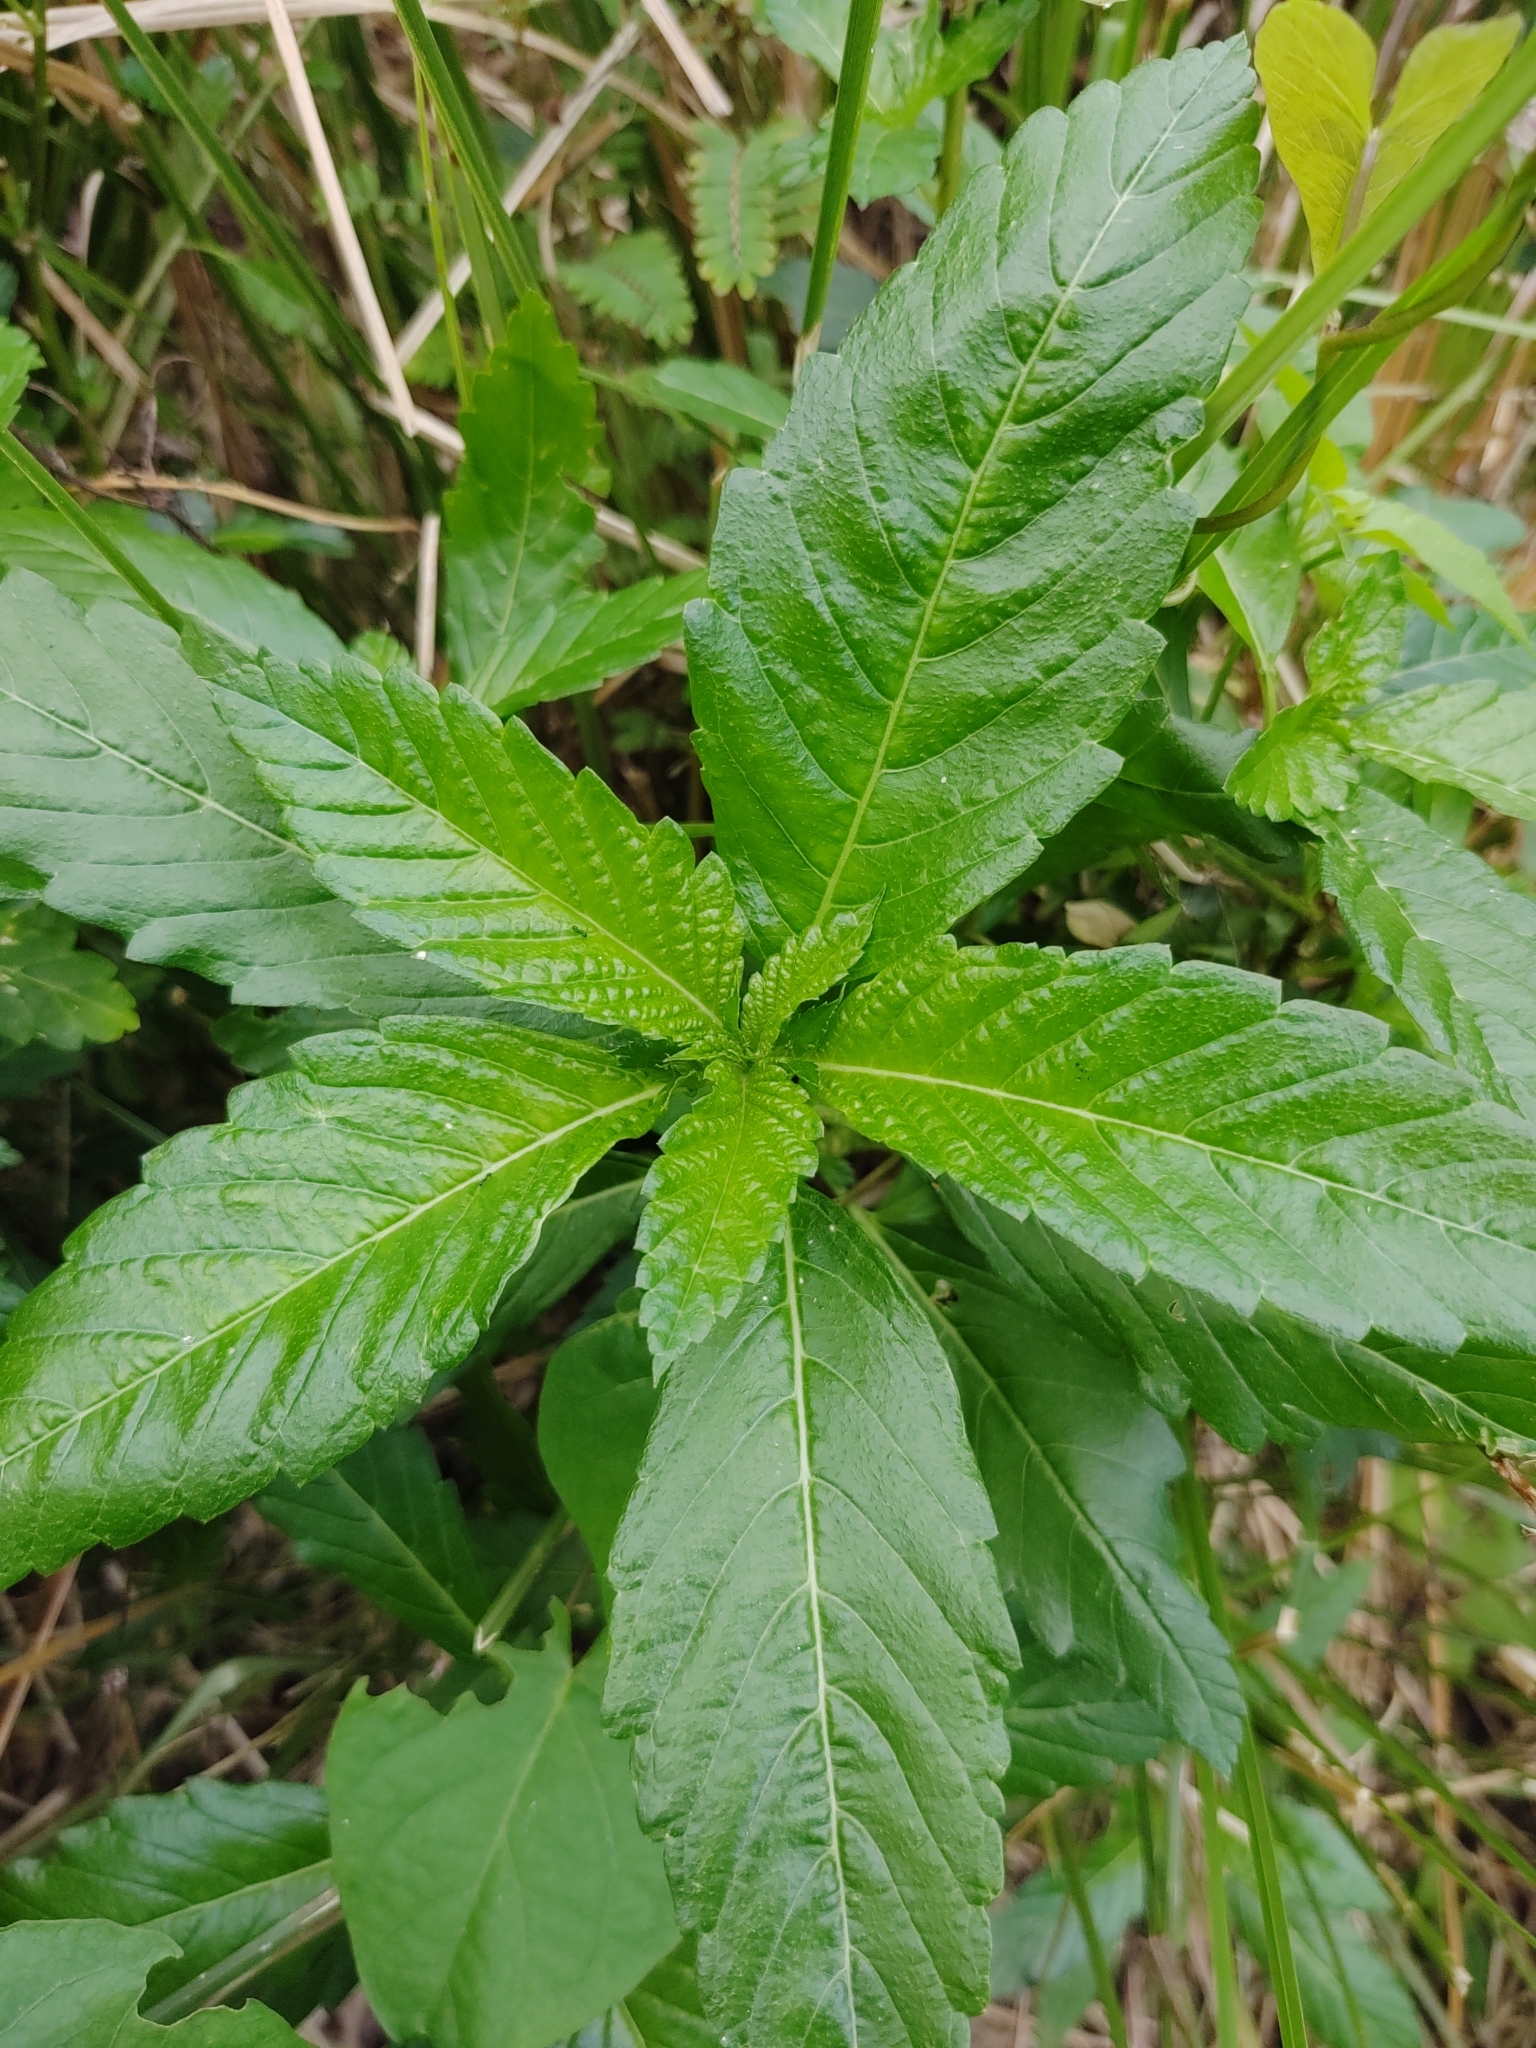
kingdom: Plantae
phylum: Tracheophyta
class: Magnoliopsida
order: Malpighiales
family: Turneraceae
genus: Turnera
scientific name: Turnera ulmifolia
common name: Ramgoat dashalong
